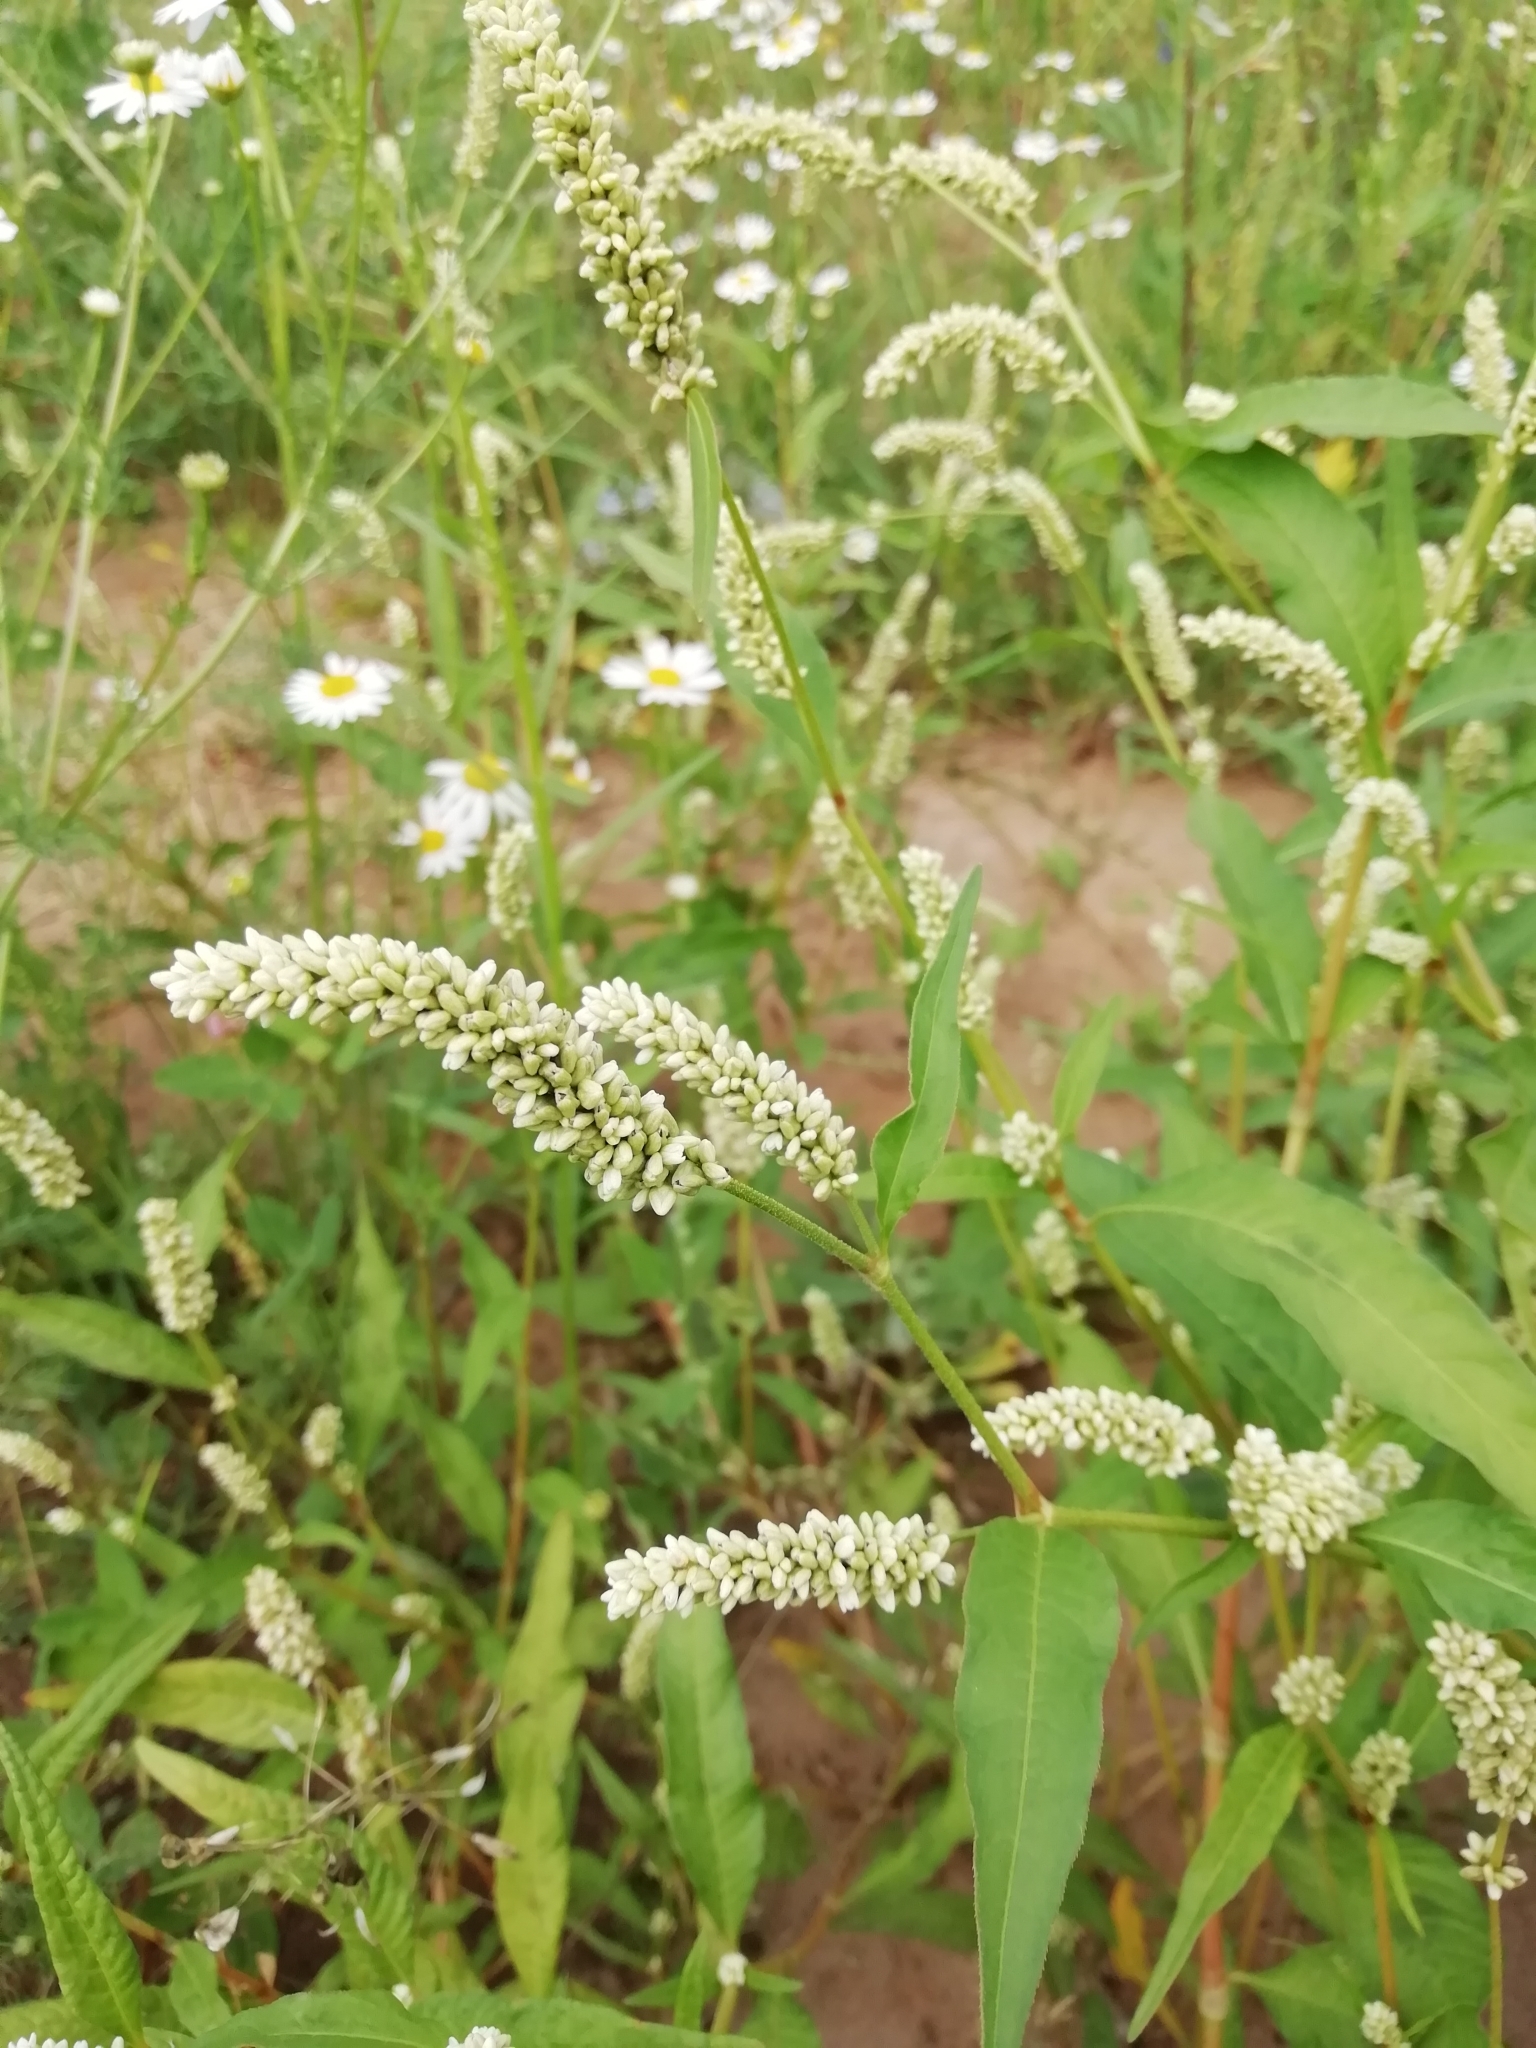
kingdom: Plantae
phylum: Tracheophyta
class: Magnoliopsida
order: Caryophyllales
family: Polygonaceae
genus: Persicaria
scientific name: Persicaria lapathifolia
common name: Curlytop knotweed
